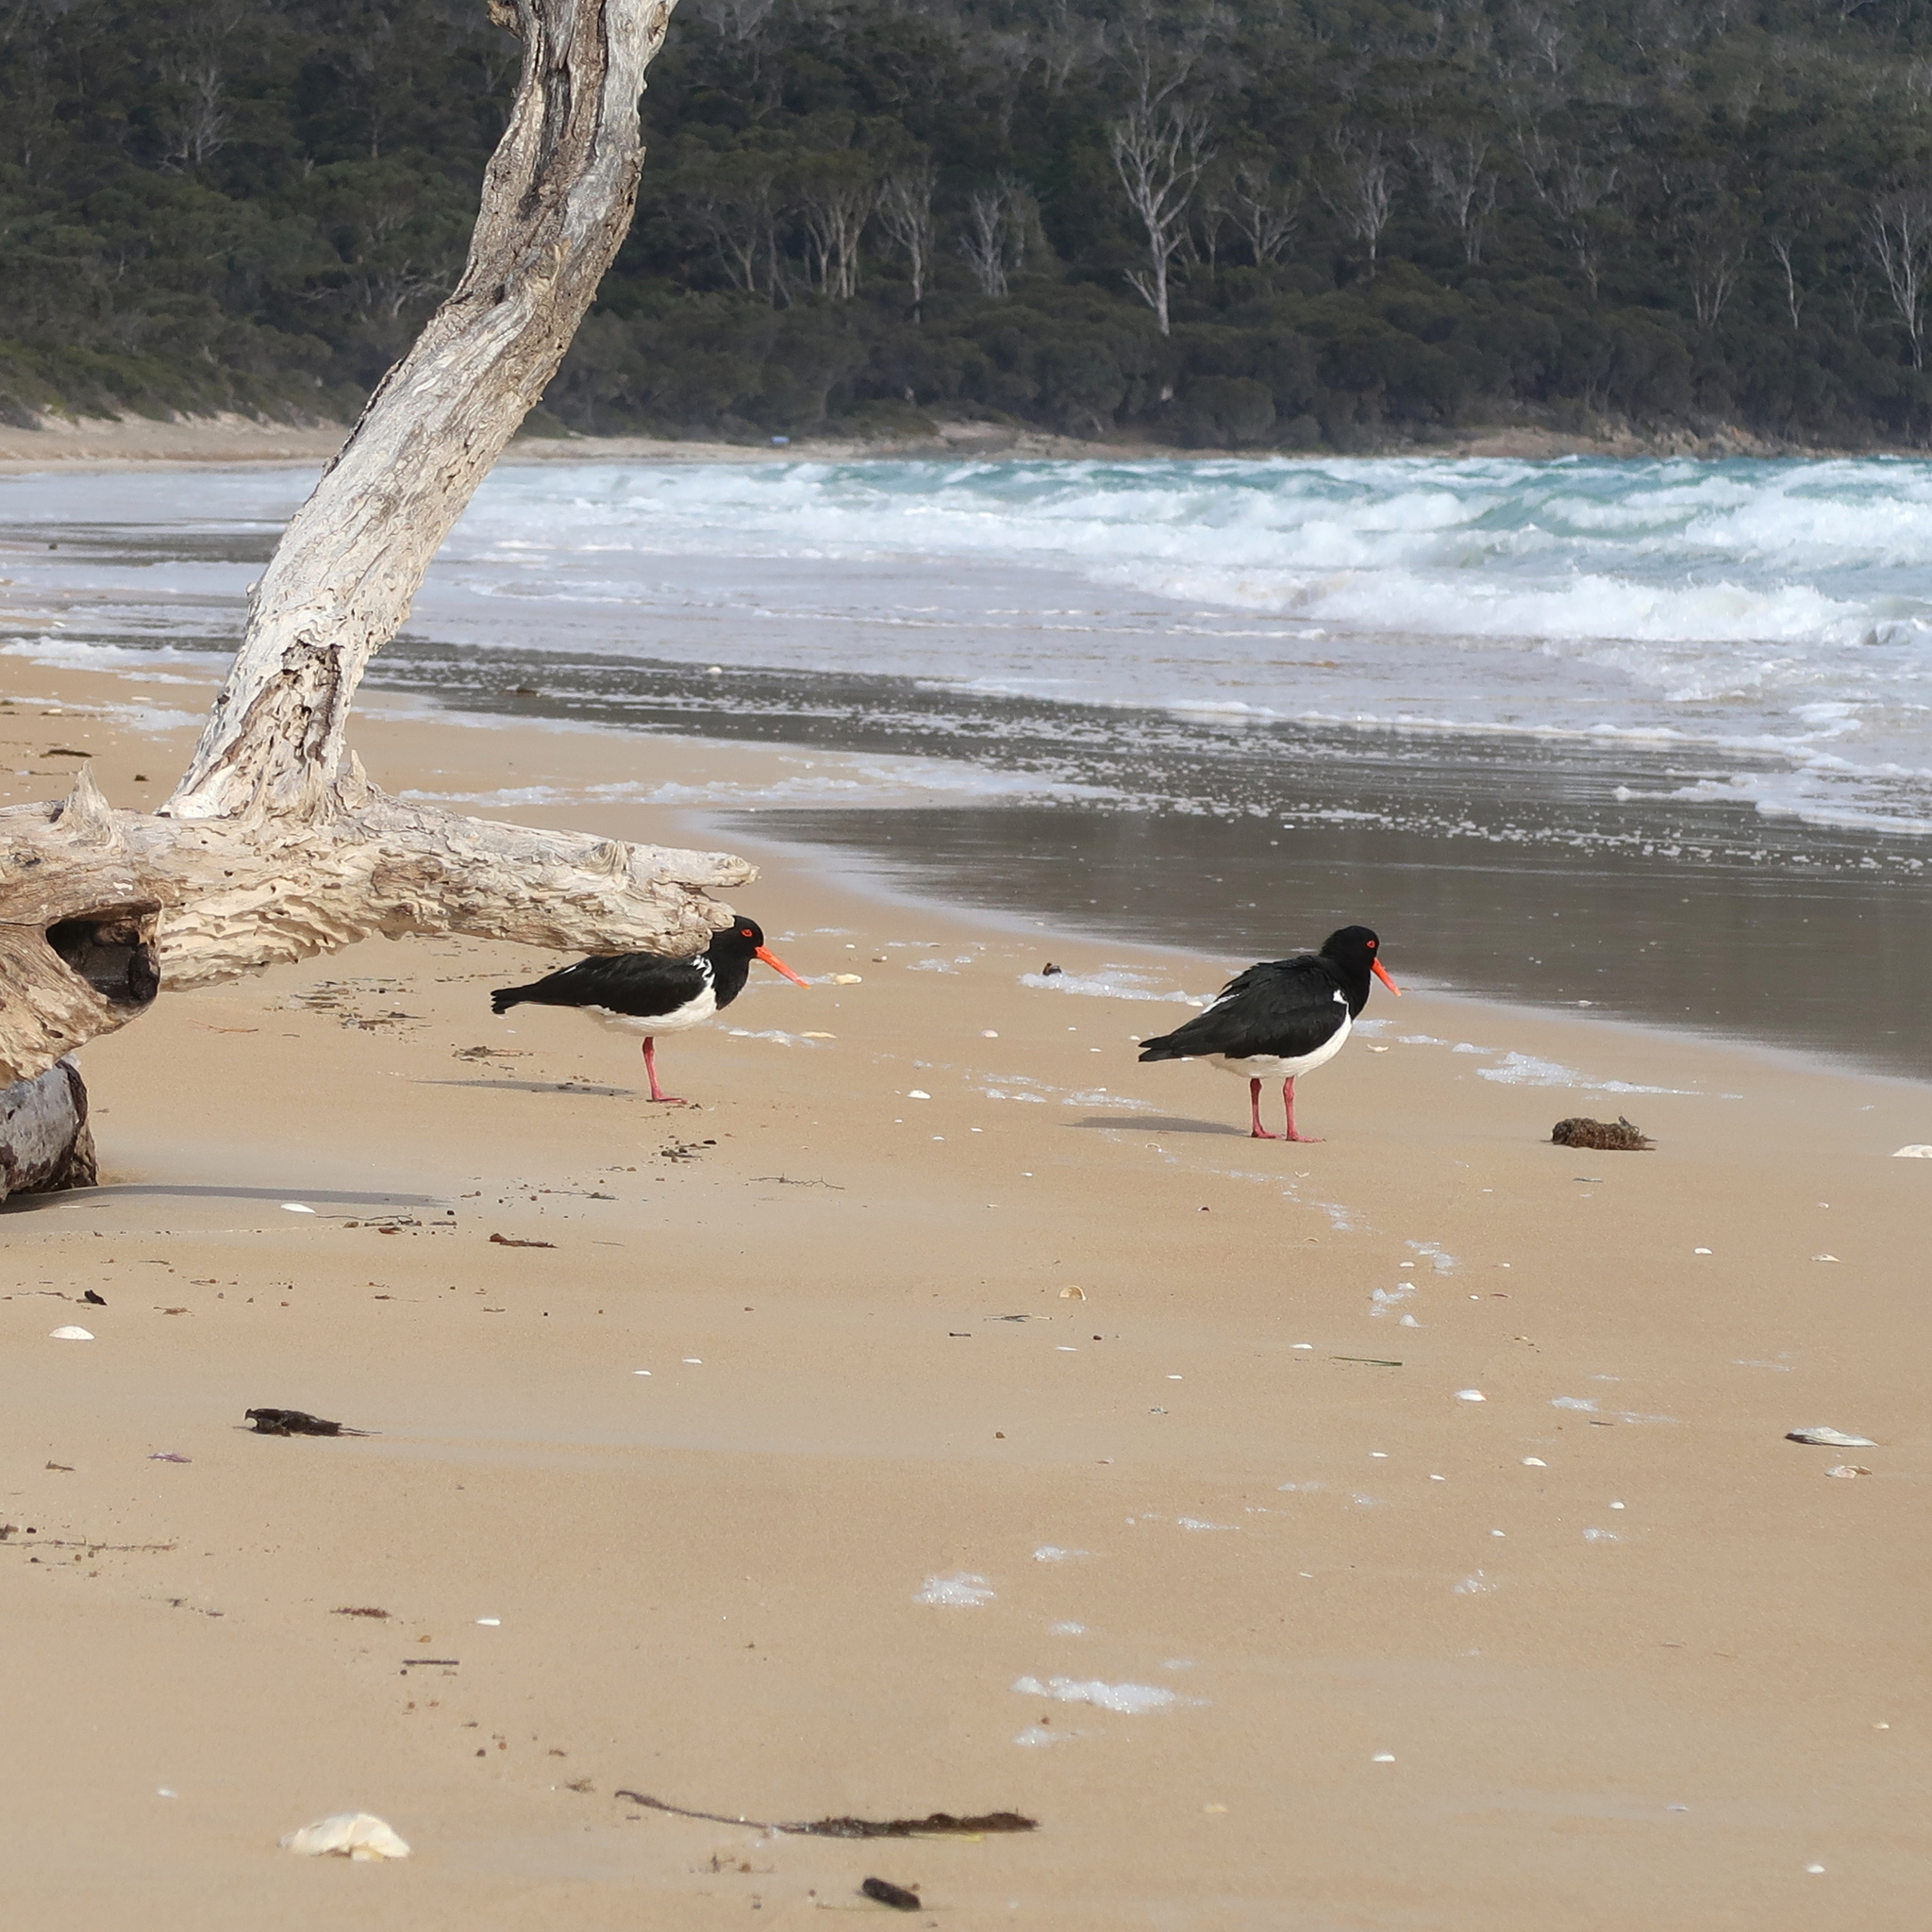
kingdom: Animalia
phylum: Chordata
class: Aves
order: Charadriiformes
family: Haematopodidae
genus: Haematopus
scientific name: Haematopus longirostris
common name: Pied oystercatcher
